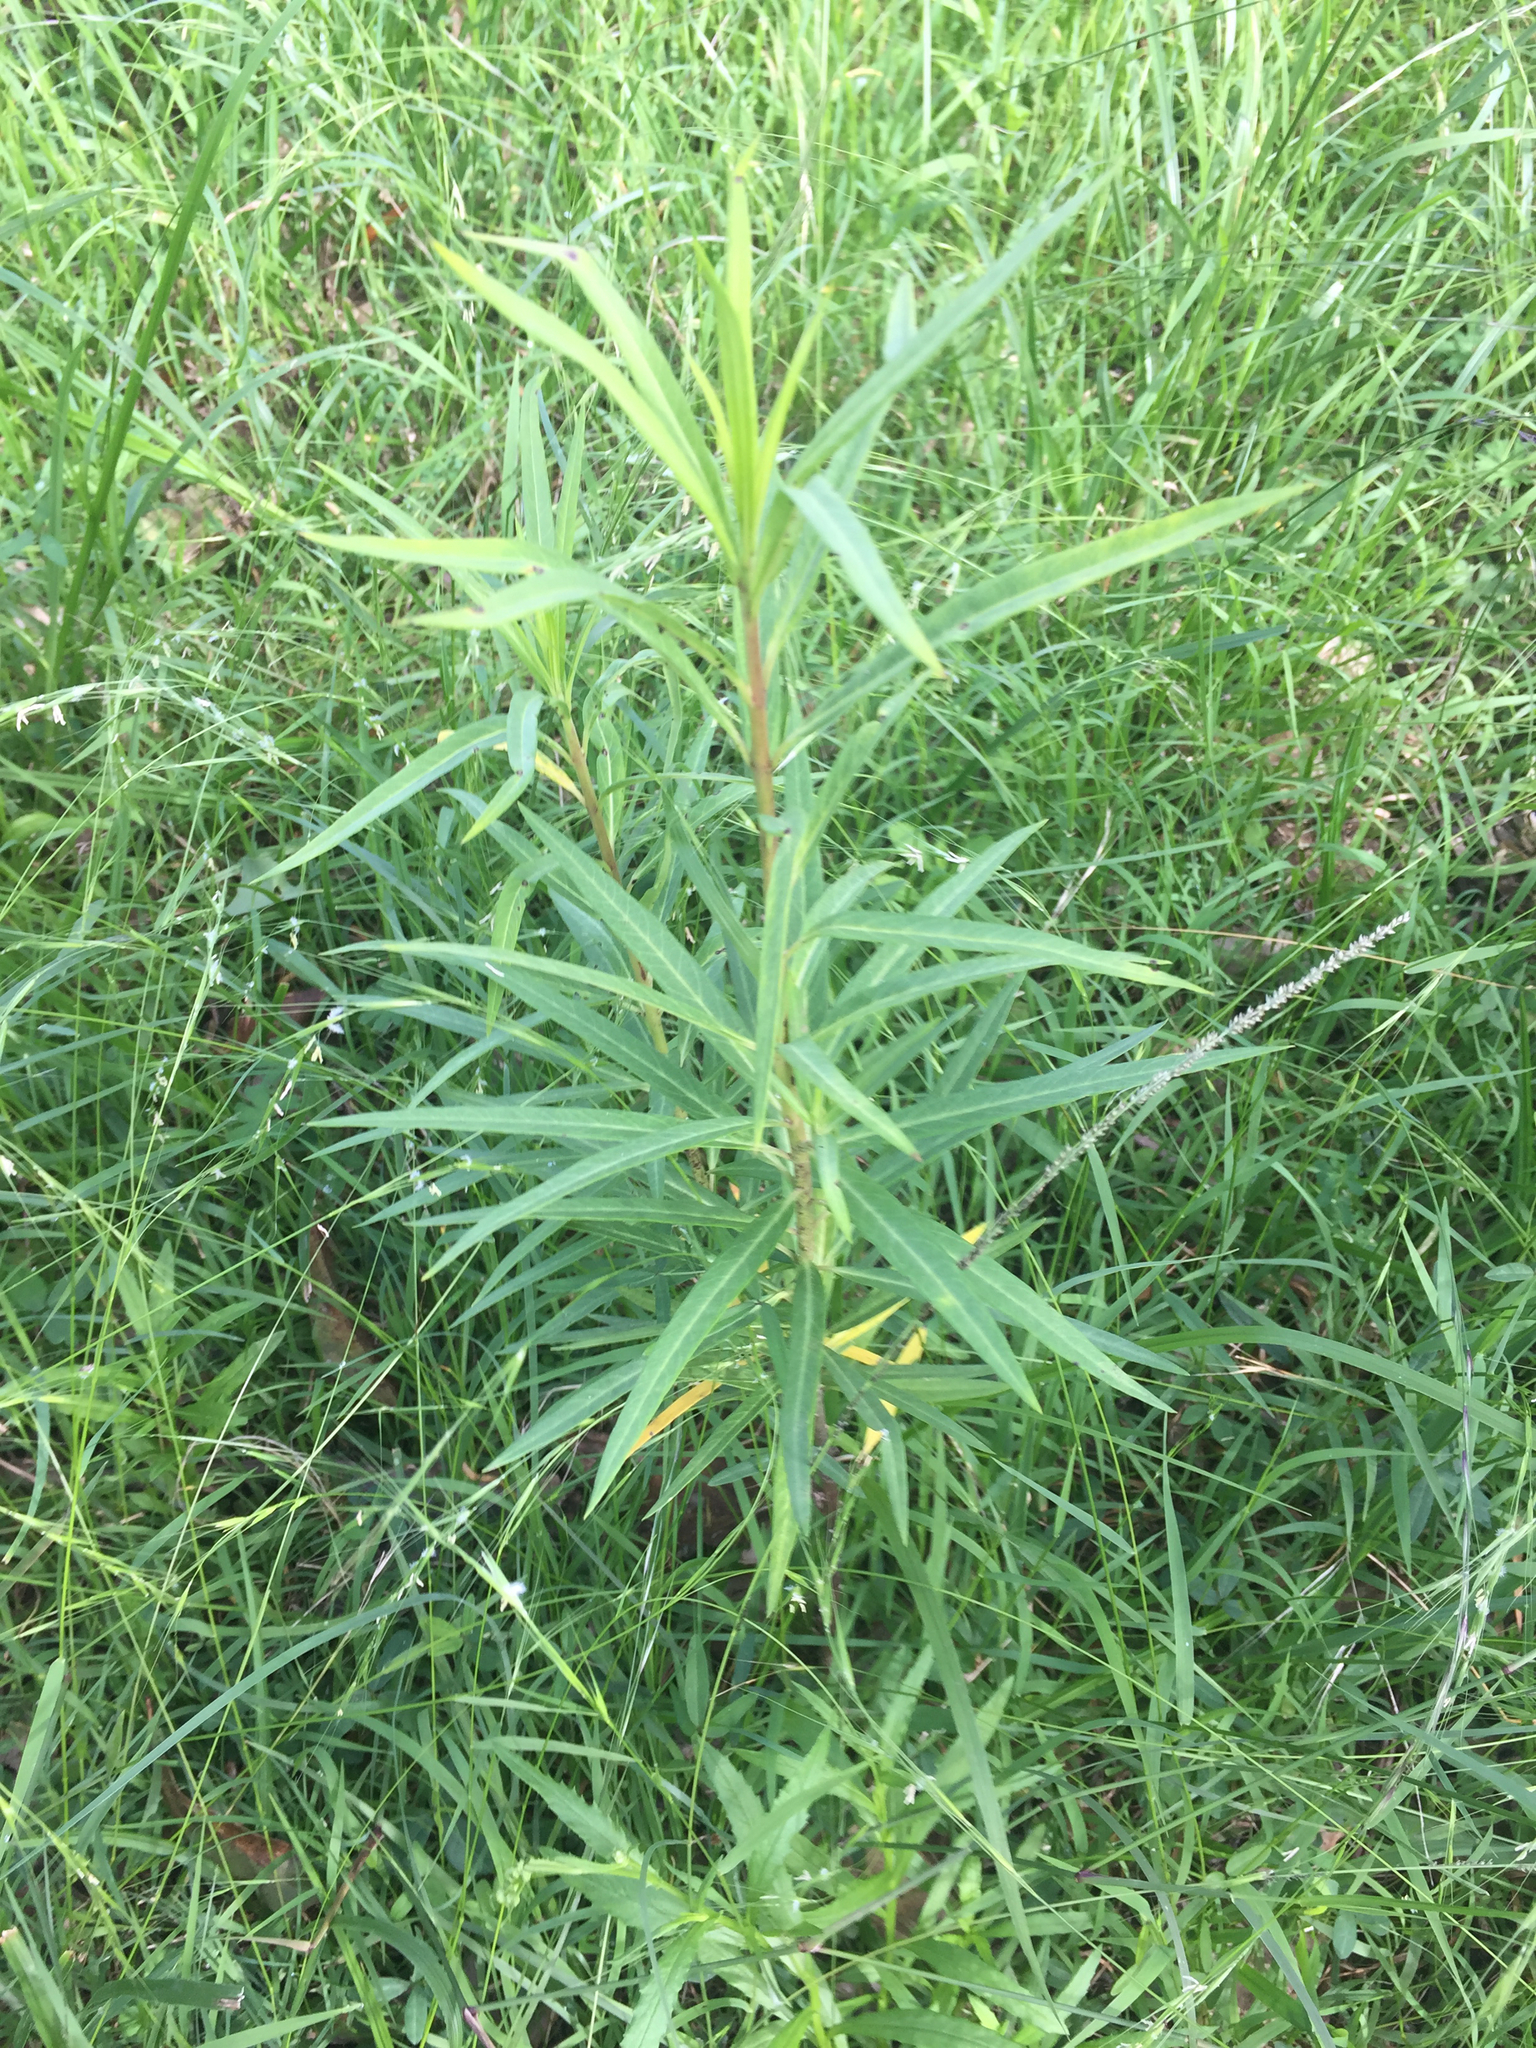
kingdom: Plantae
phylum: Tracheophyta
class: Magnoliopsida
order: Gentianales
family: Apocynaceae
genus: Gomphocarpus
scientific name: Gomphocarpus physocarpus
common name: Balloon cotton bush
